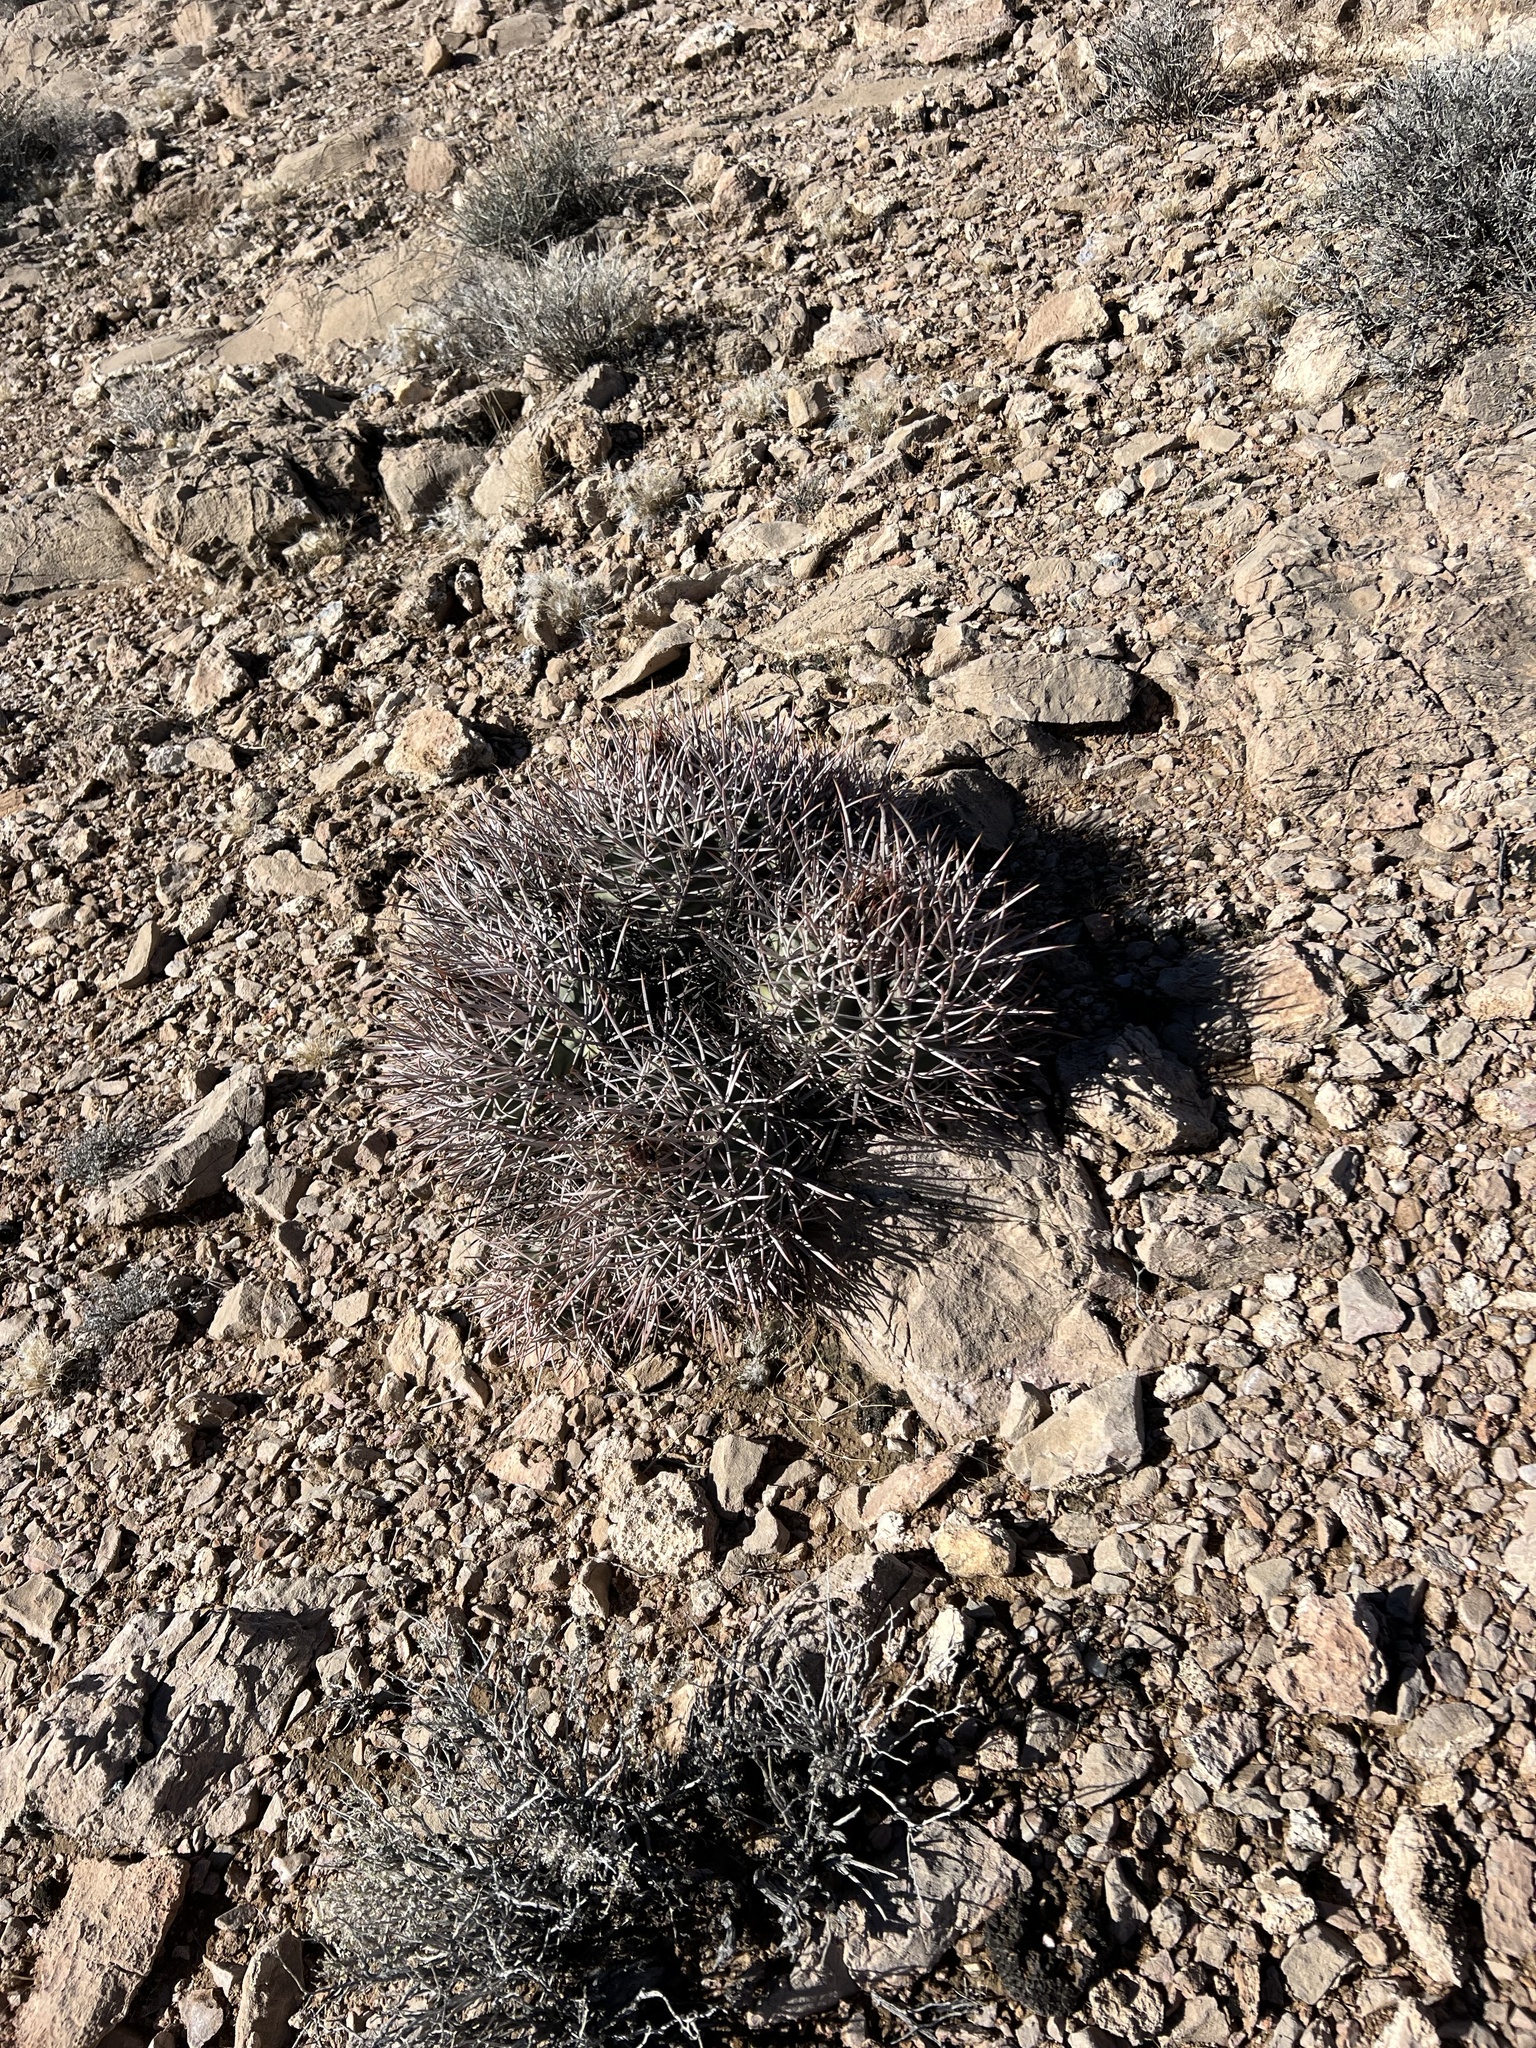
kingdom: Plantae
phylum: Tracheophyta
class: Magnoliopsida
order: Caryophyllales
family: Cactaceae
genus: Echinocactus
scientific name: Echinocactus polycephalus
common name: Cottontop cactus
